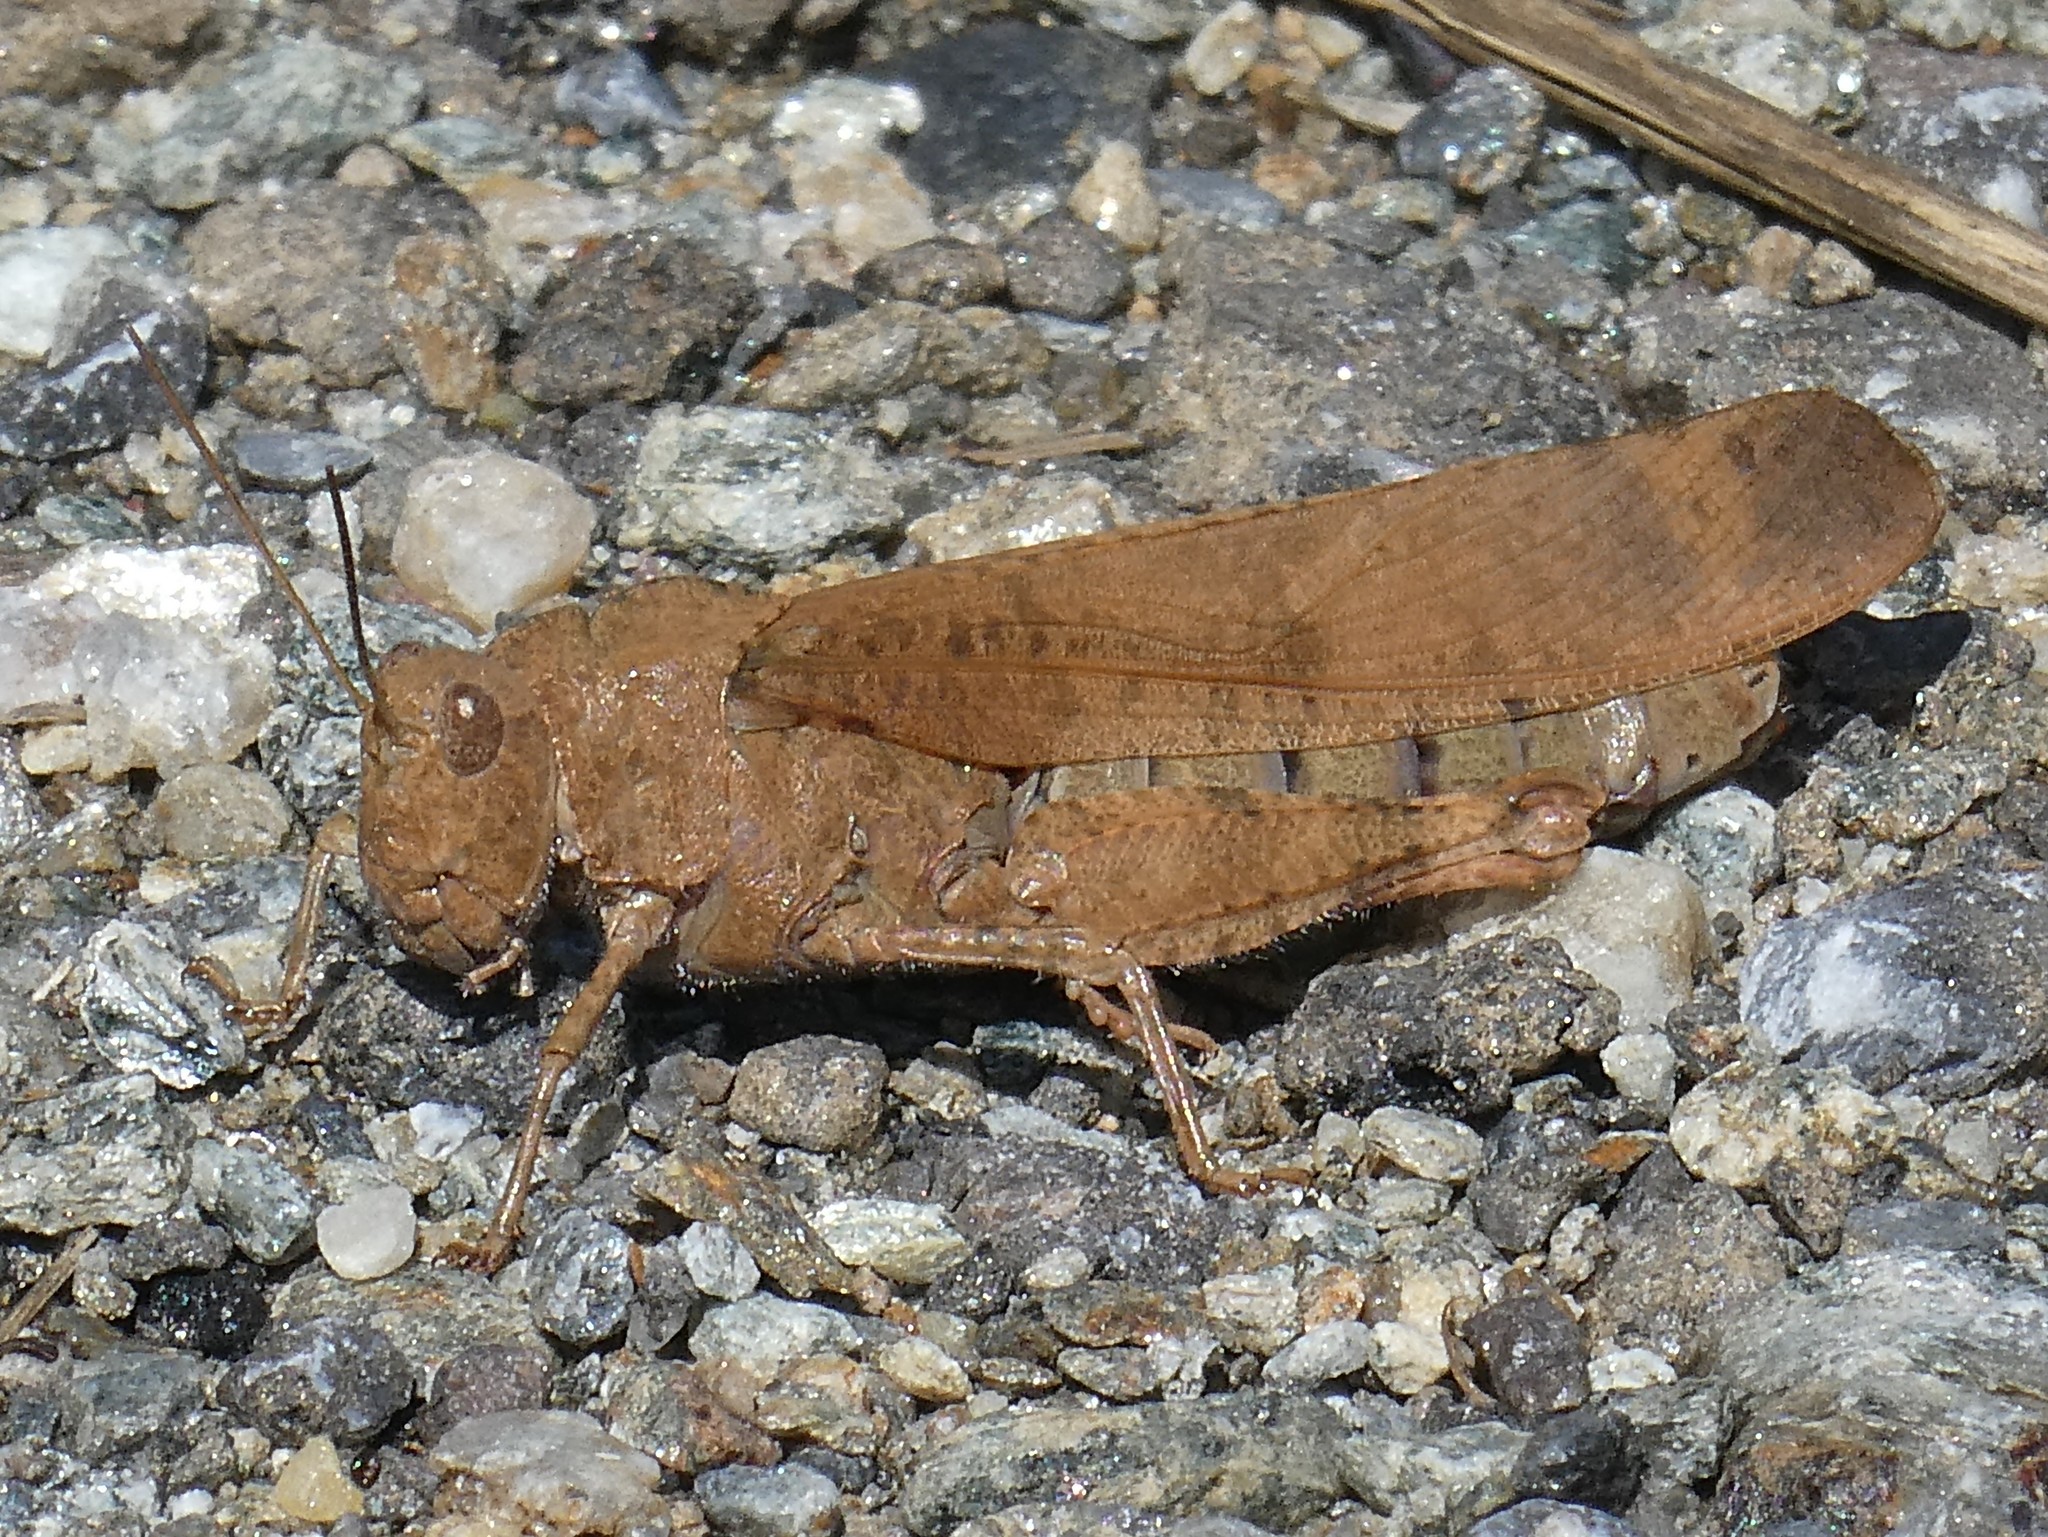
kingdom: Animalia
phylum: Arthropoda
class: Insecta
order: Orthoptera
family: Acrididae
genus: Dissosteira
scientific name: Dissosteira carolina
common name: Carolina grasshopper
